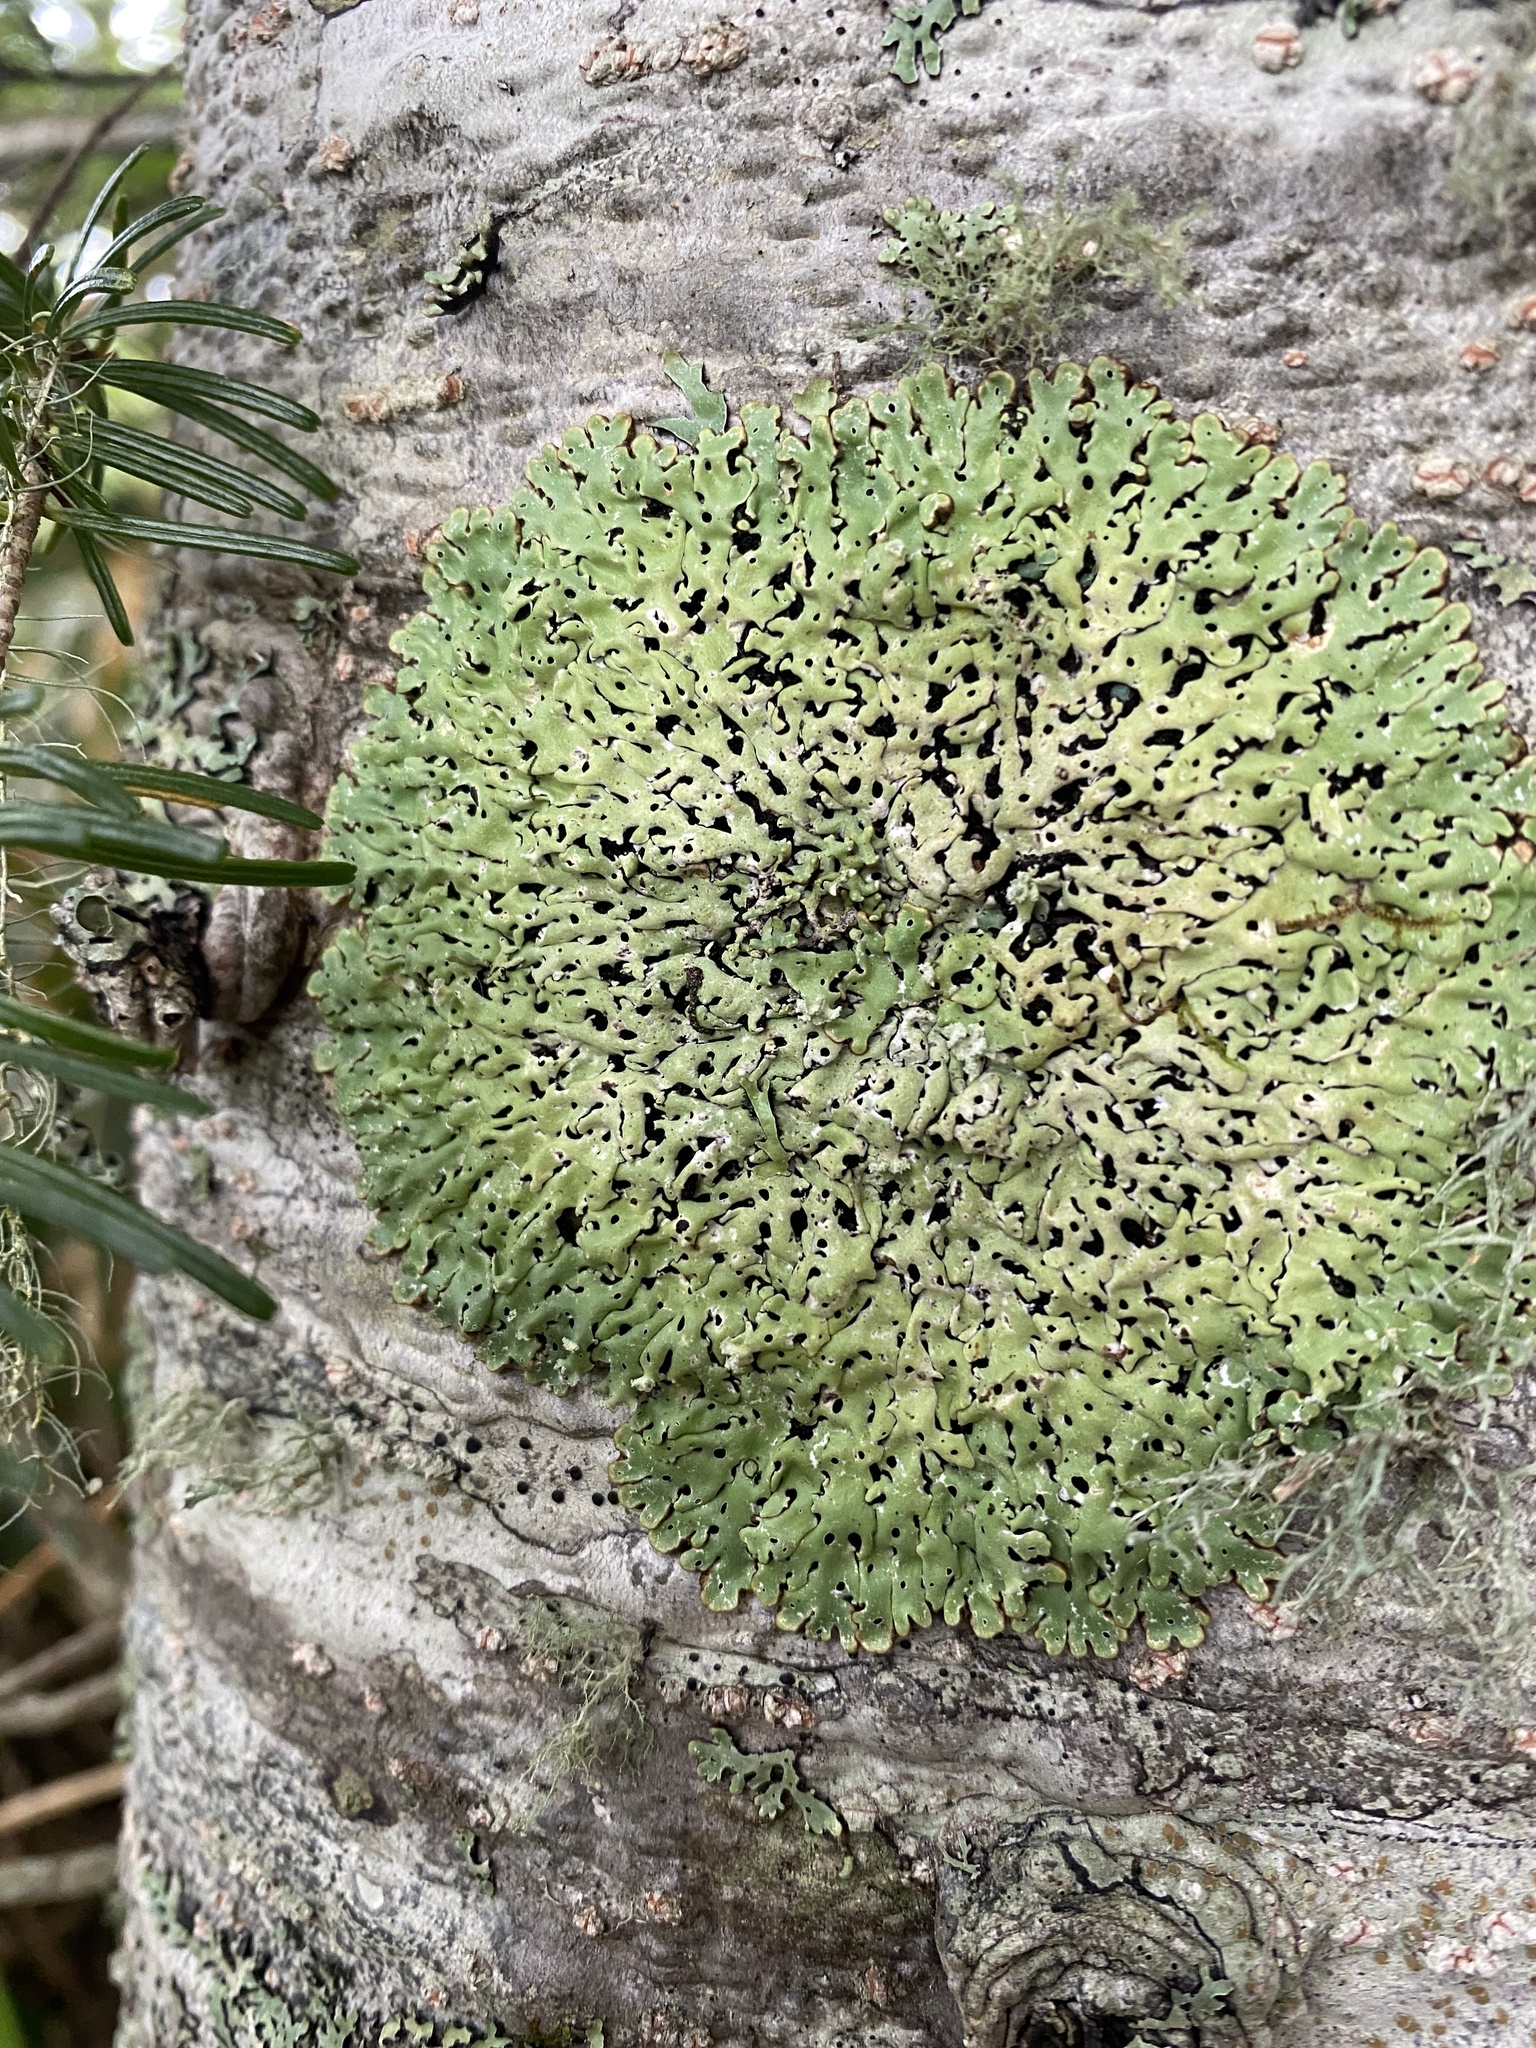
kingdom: Fungi
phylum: Ascomycota
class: Lecanoromycetes
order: Lecanorales
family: Parmeliaceae
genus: Menegazzia
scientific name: Menegazzia
